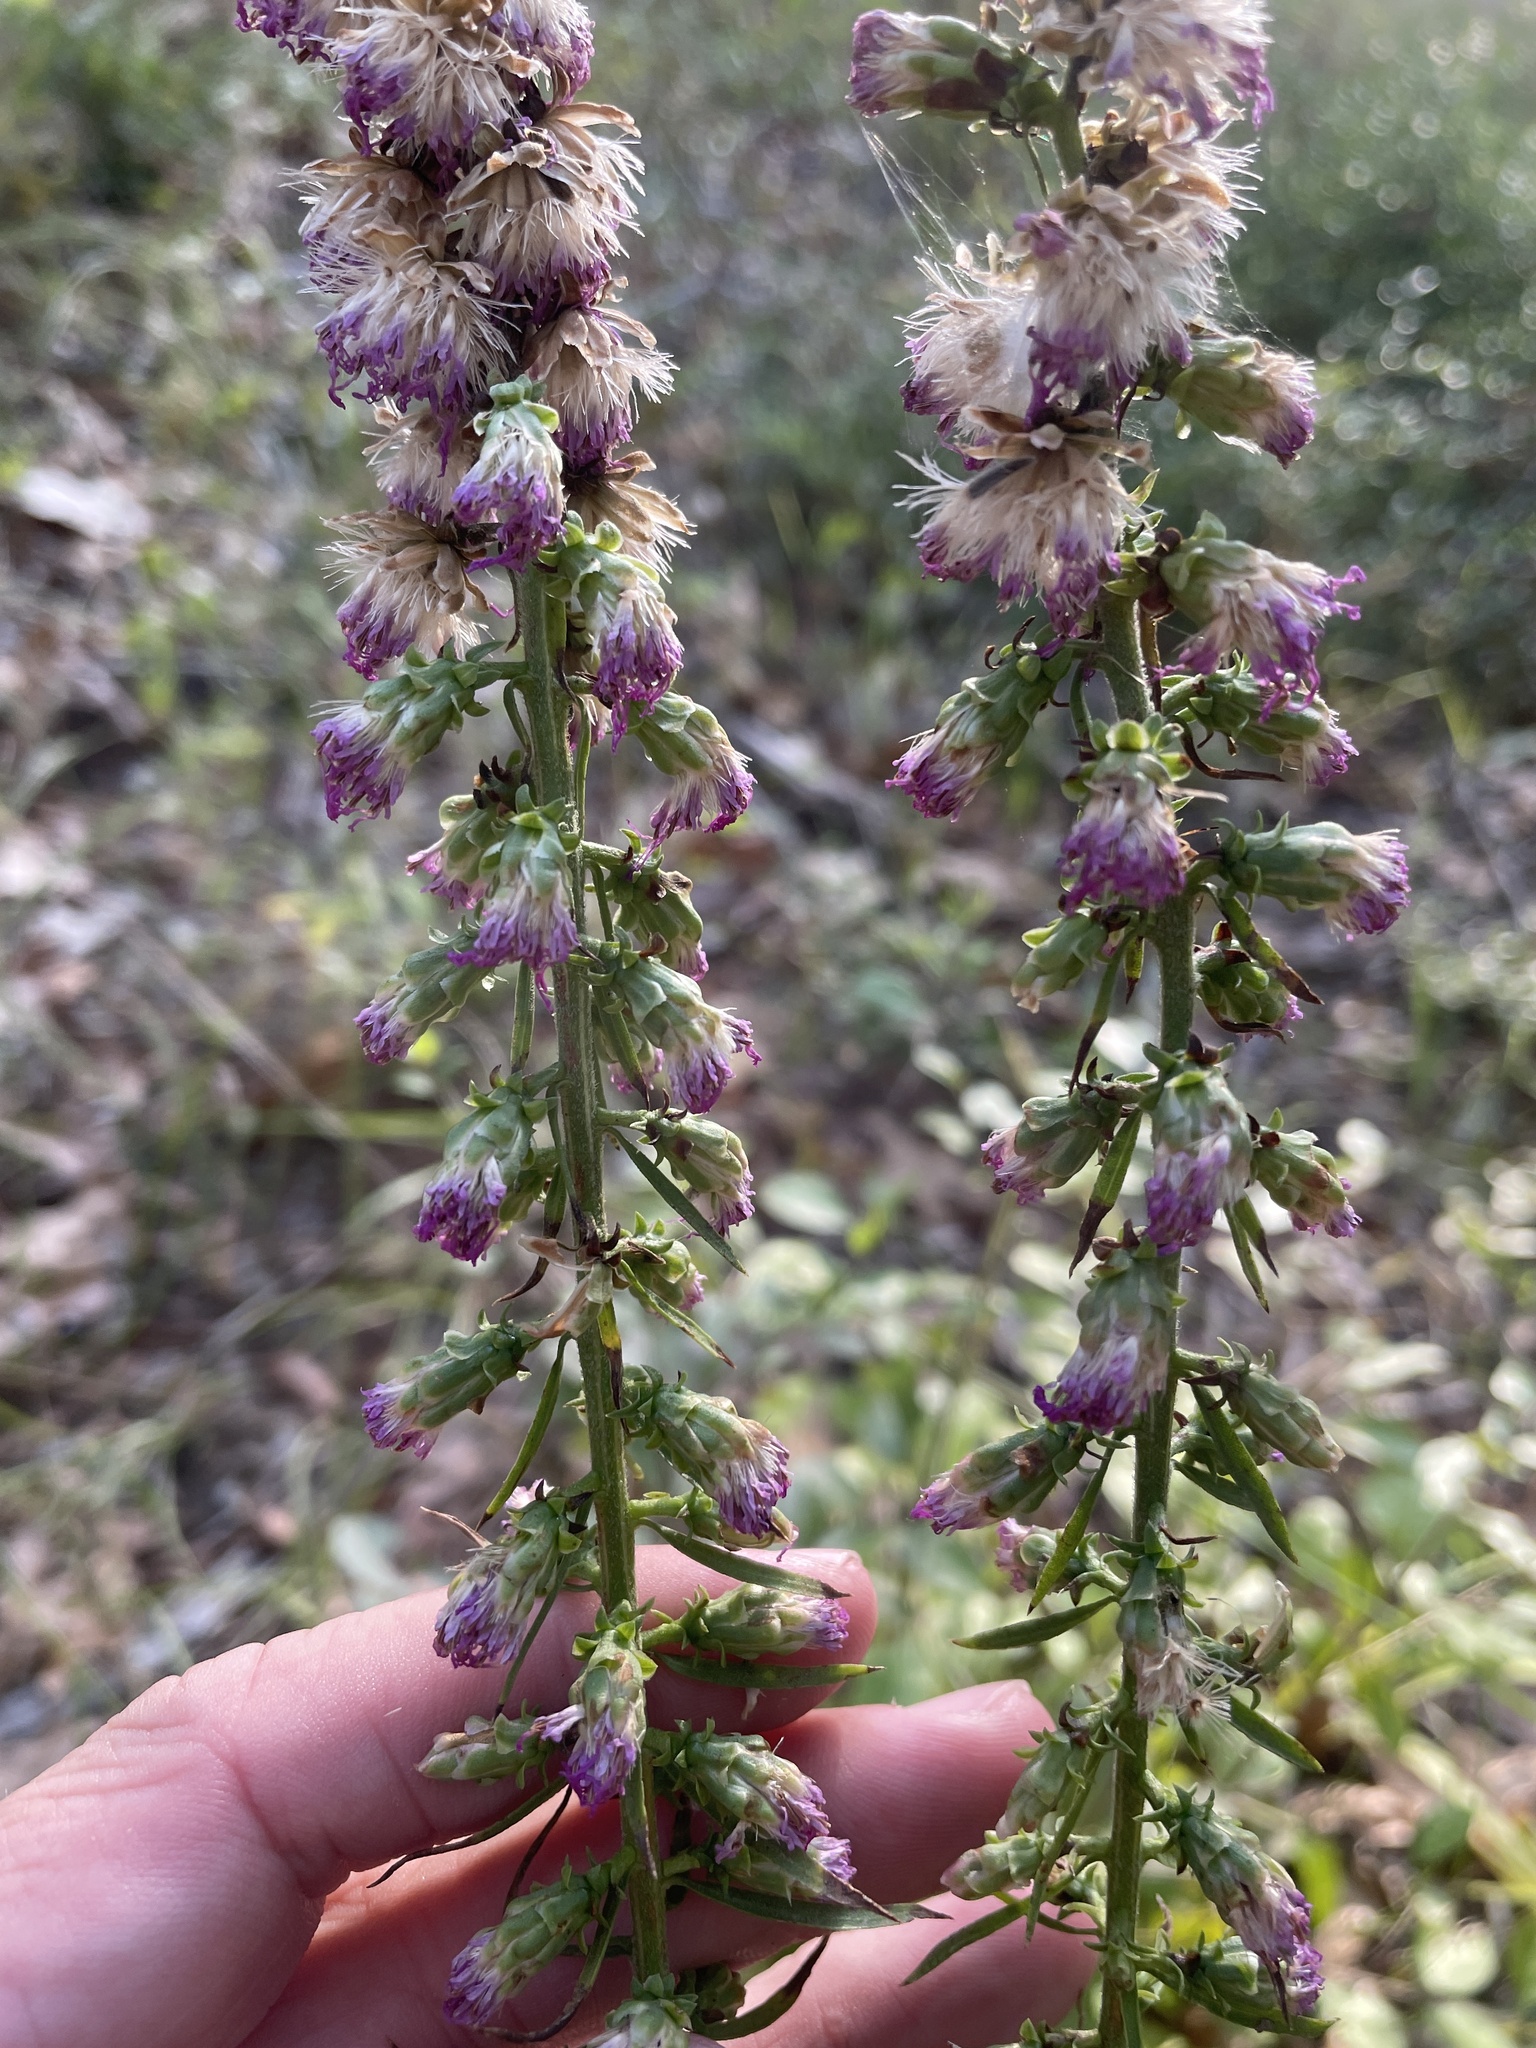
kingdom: Plantae
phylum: Tracheophyta
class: Magnoliopsida
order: Asterales
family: Asteraceae
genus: Liatris
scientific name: Liatris aspera
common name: Lacerate blazing-star
